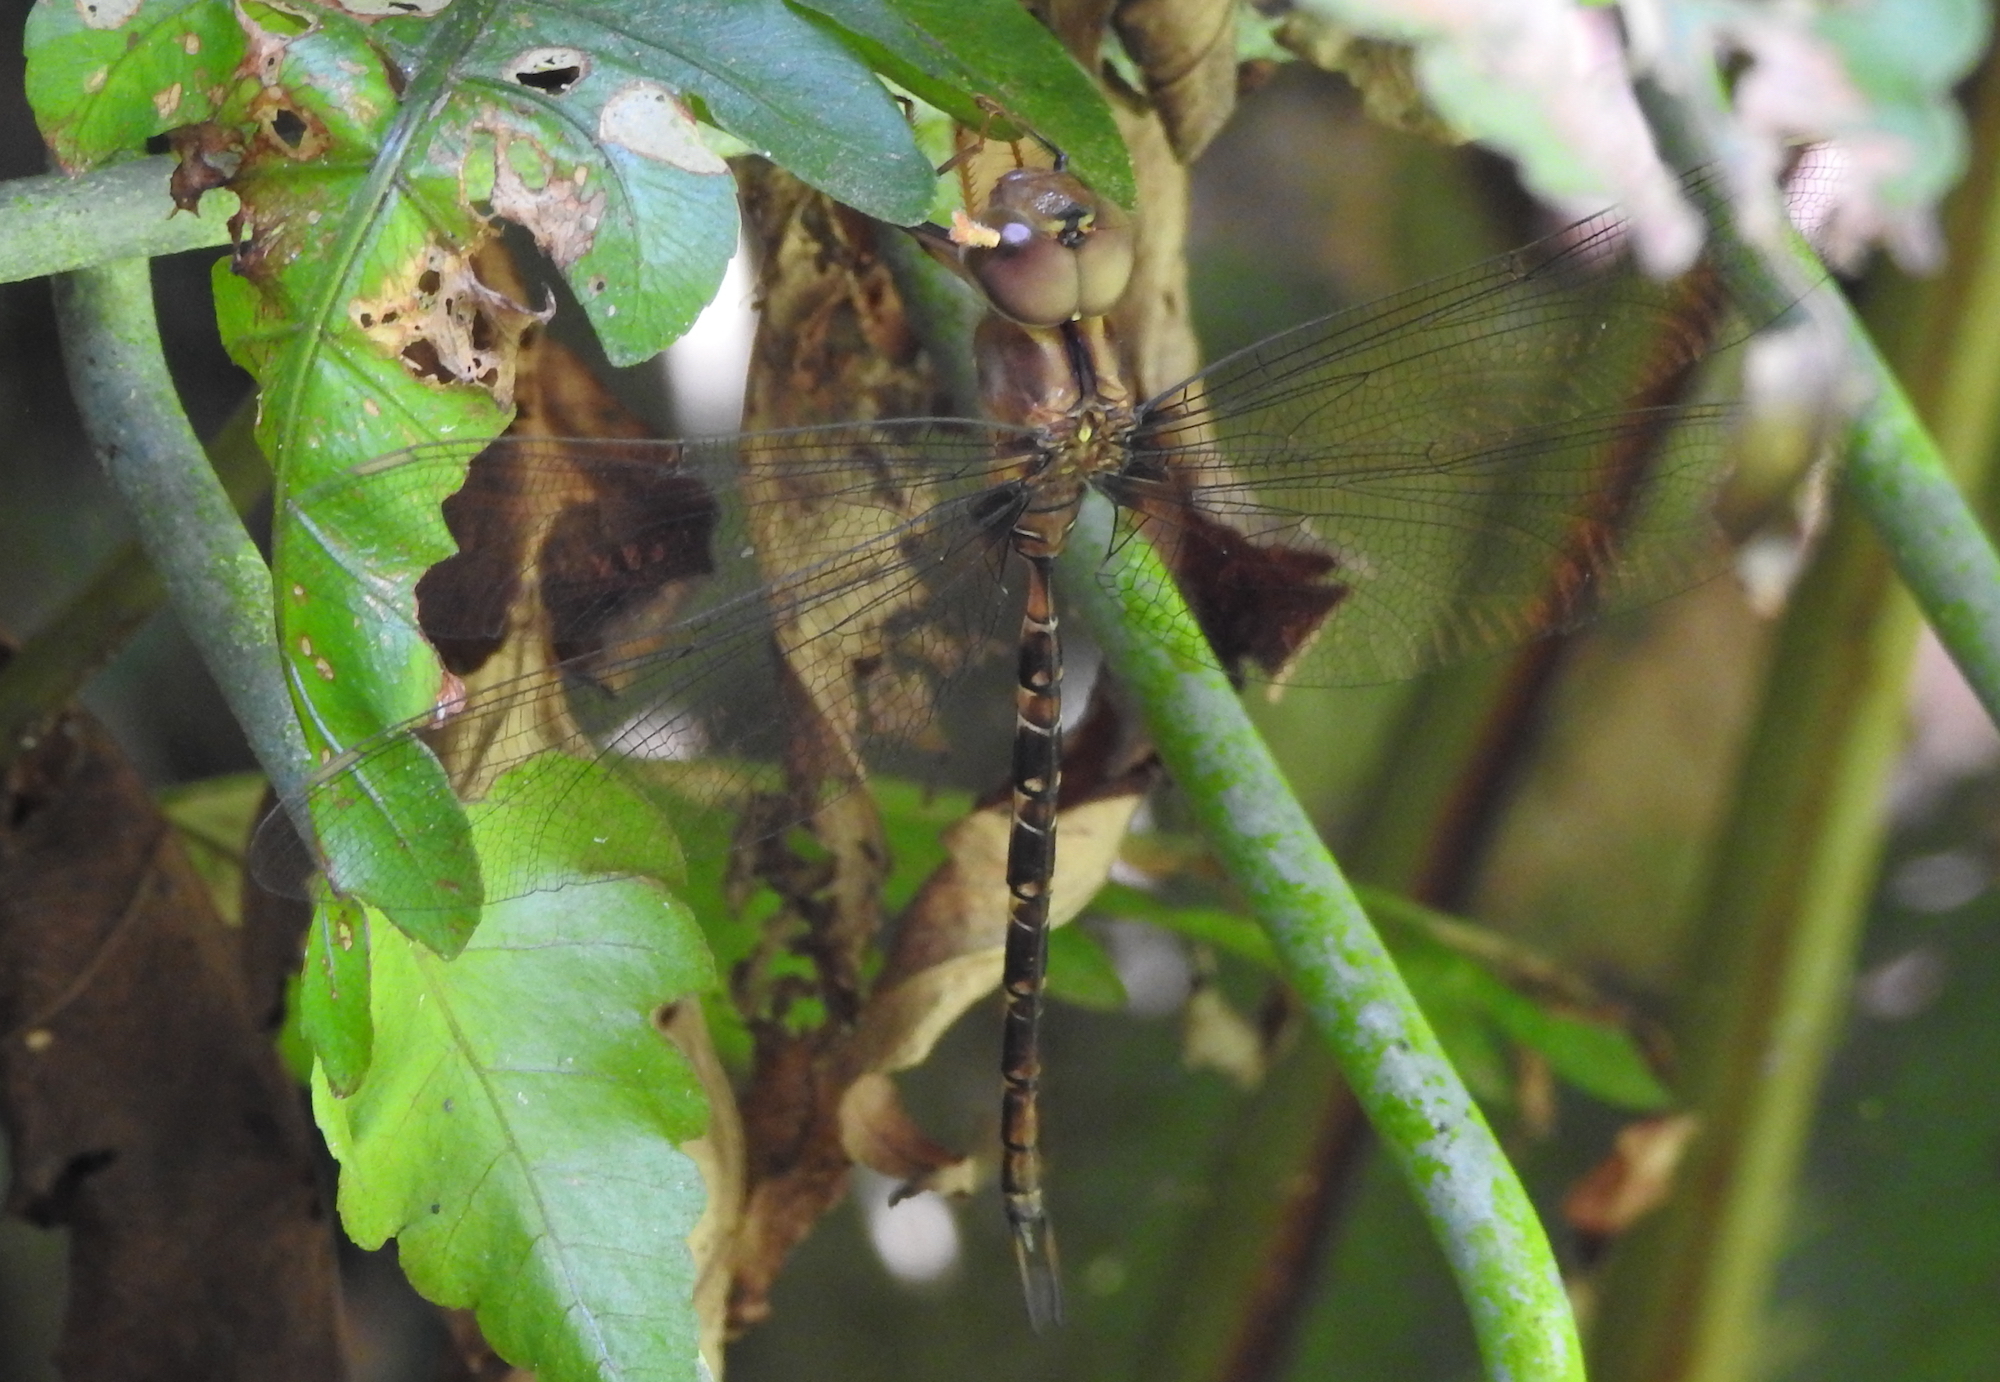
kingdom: Animalia
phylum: Arthropoda
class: Insecta
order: Odonata
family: Aeshnidae
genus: Gynacantha
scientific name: Gynacantha subinterrupta
